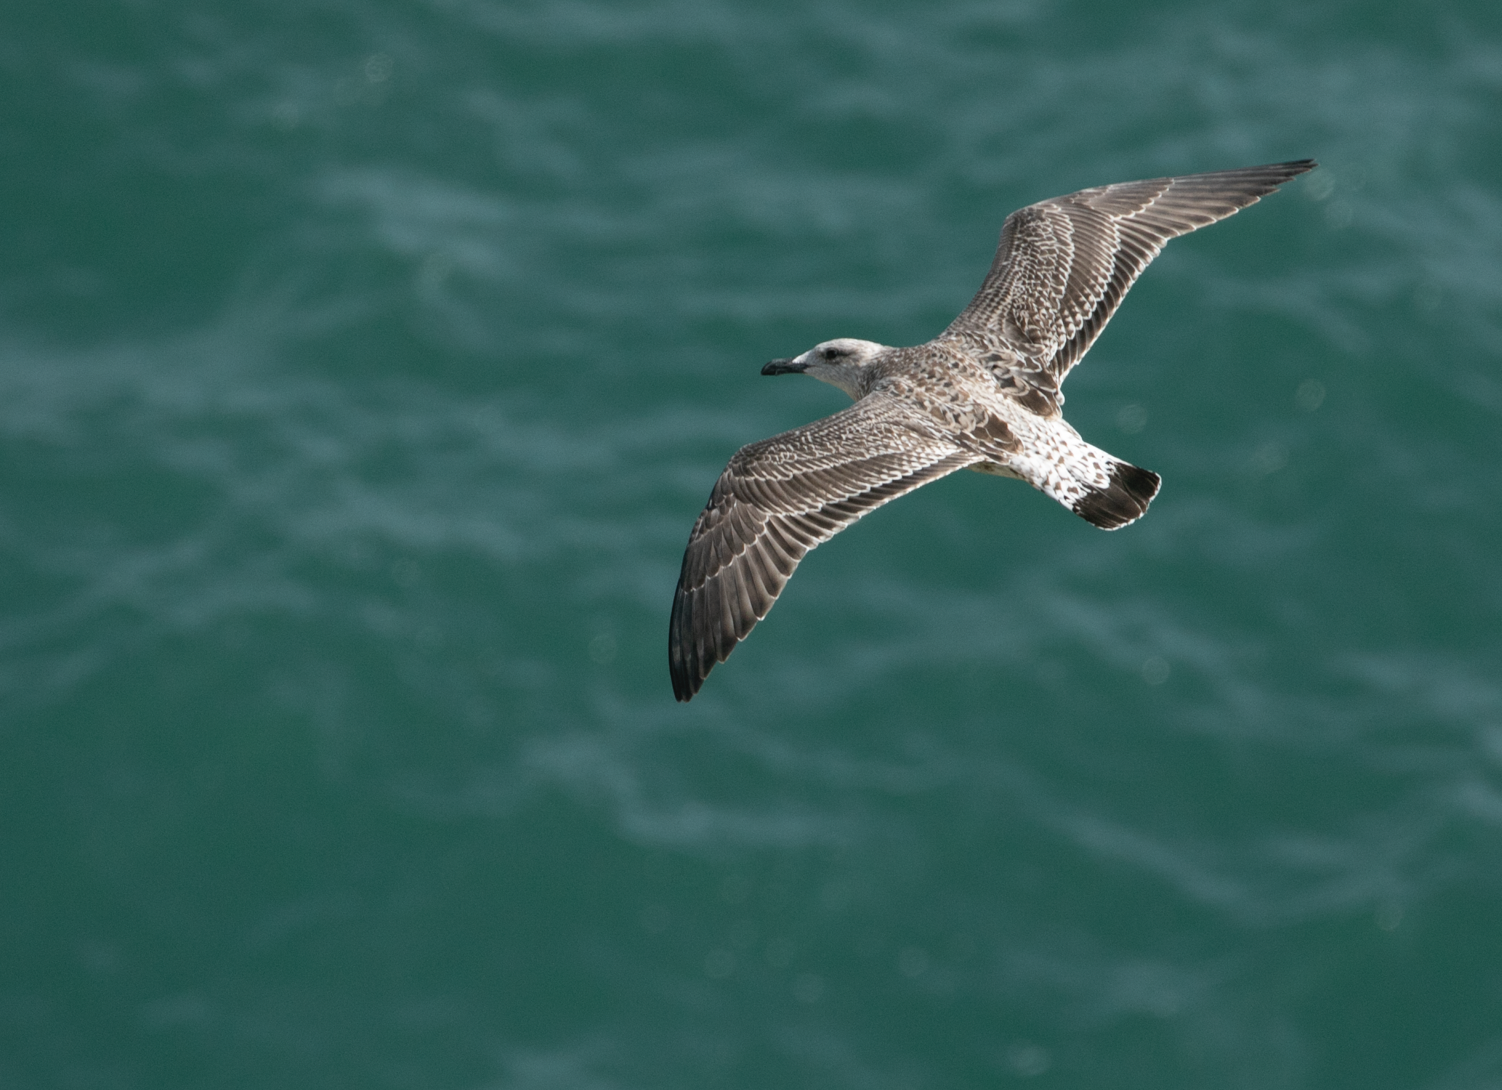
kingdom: Animalia
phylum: Chordata
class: Aves
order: Charadriiformes
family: Laridae
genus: Larus
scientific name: Larus michahellis
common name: Yellow-legged gull
